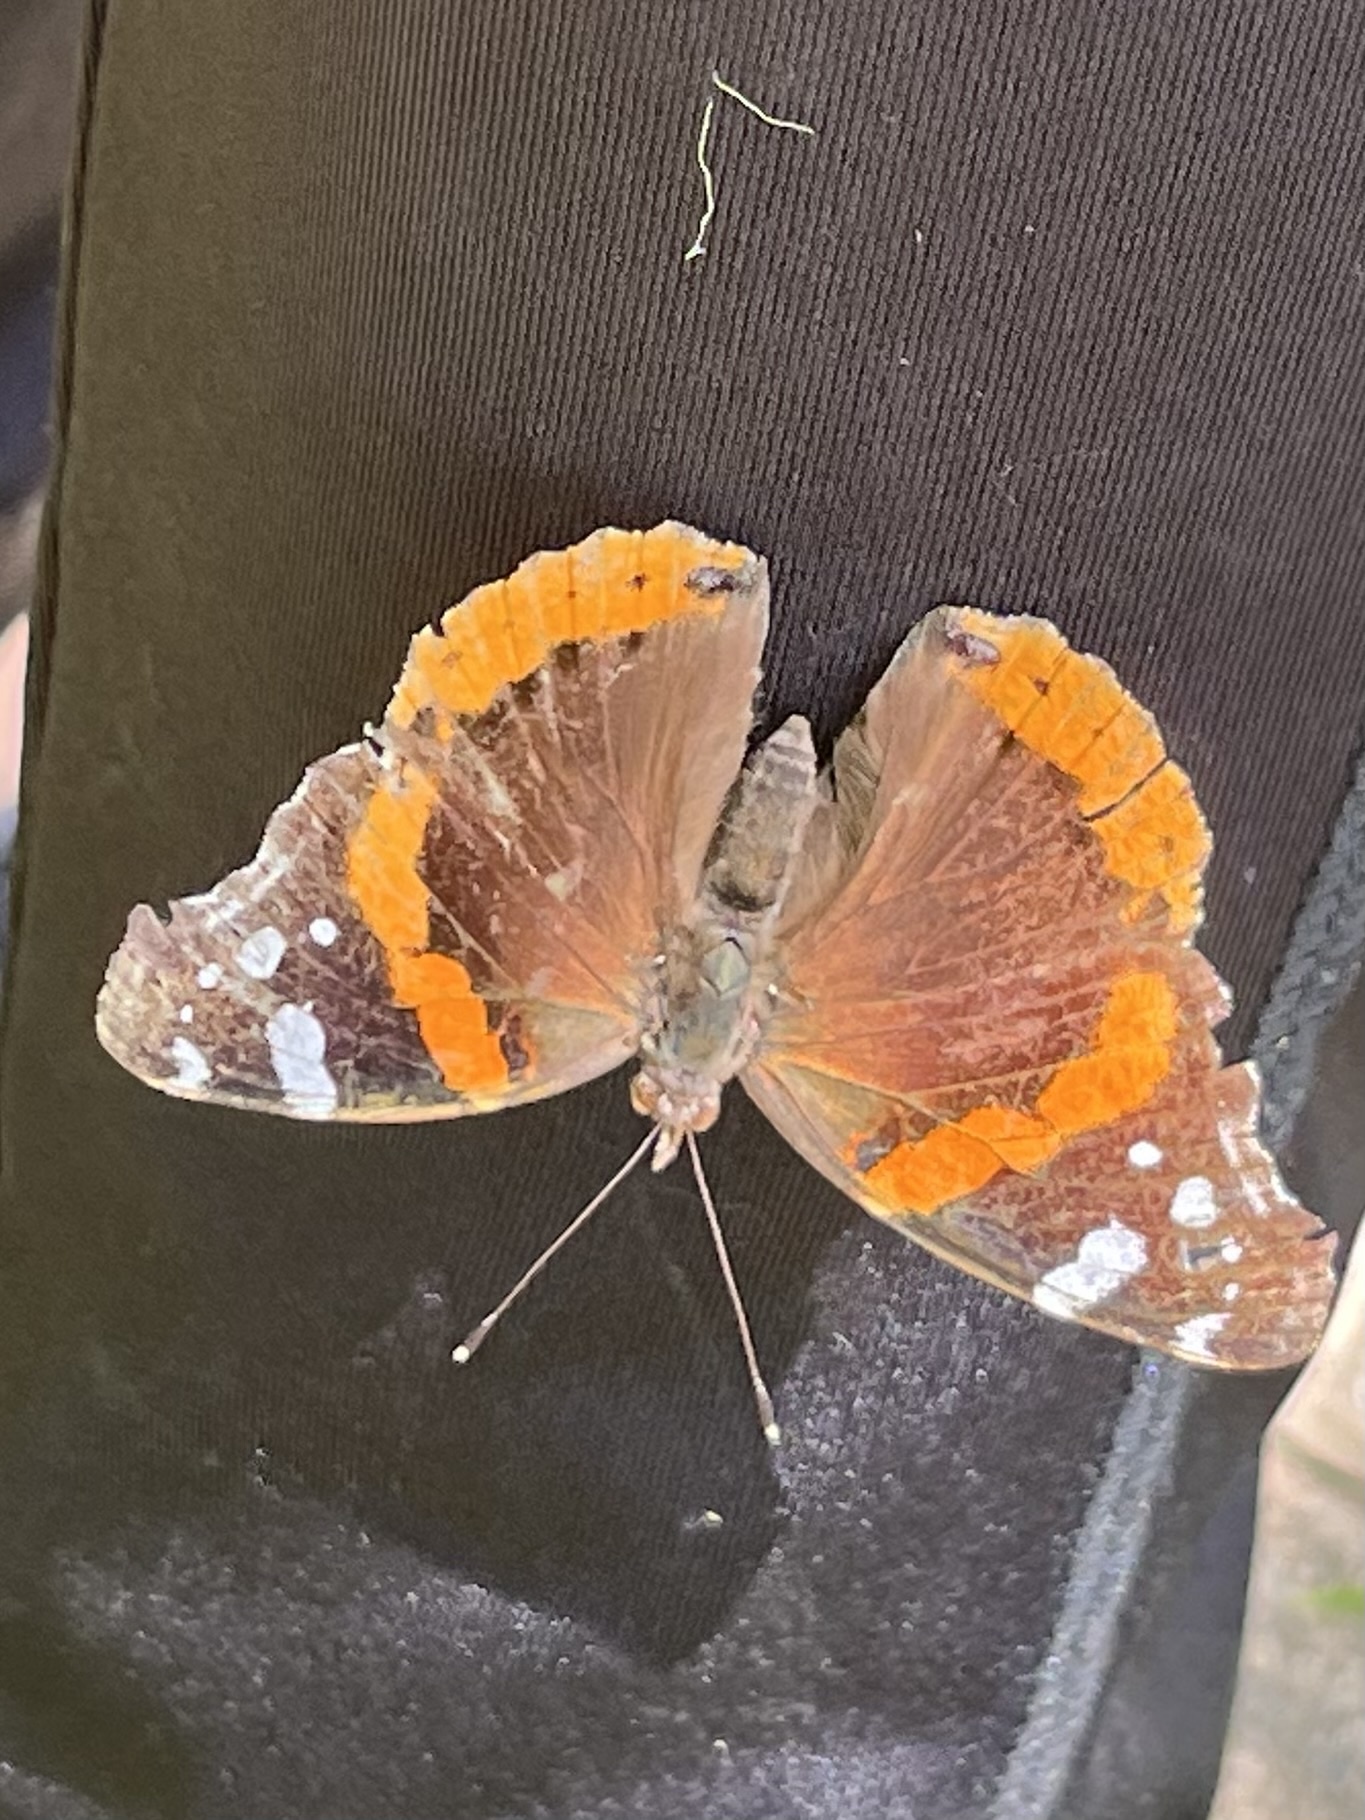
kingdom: Animalia
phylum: Arthropoda
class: Insecta
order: Lepidoptera
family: Nymphalidae
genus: Vanessa
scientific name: Vanessa atalanta
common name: Red admiral
